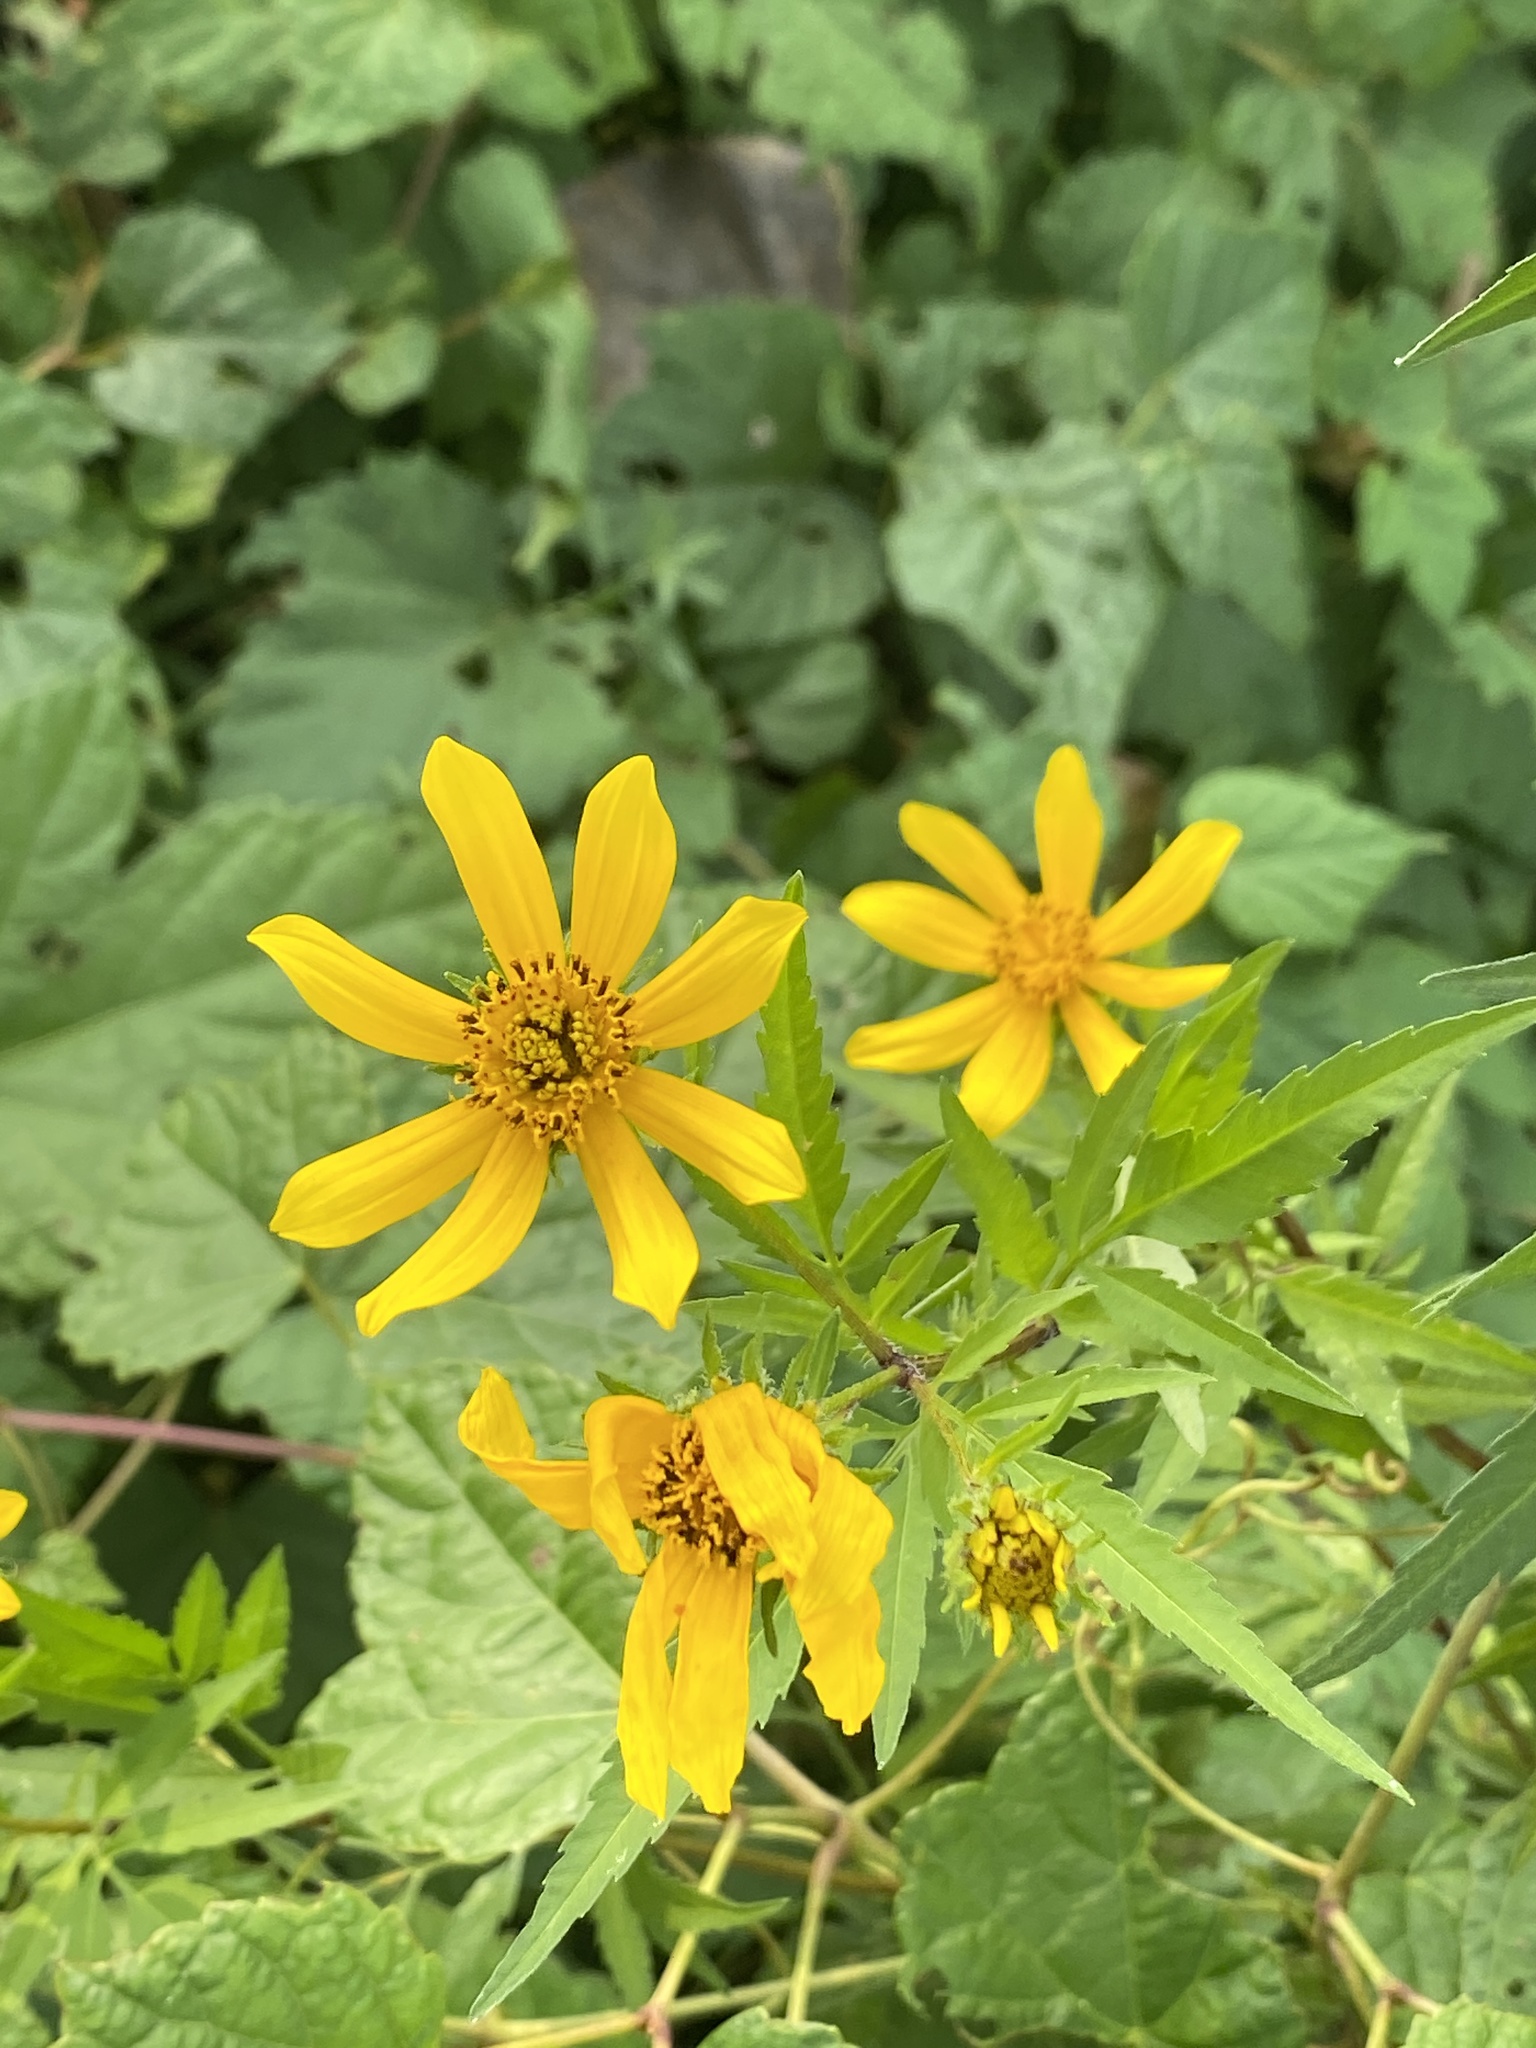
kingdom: Plantae
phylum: Tracheophyta
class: Magnoliopsida
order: Asterales
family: Asteraceae
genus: Bidens
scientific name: Bidens polylepis
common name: Awnless beggarticks
